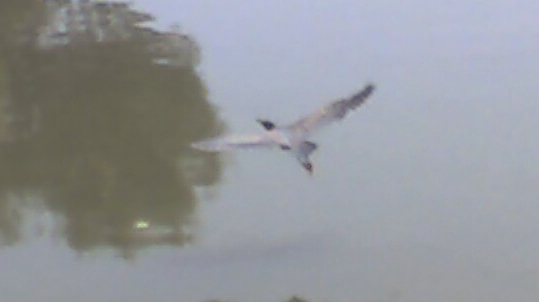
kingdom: Animalia
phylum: Chordata
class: Aves
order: Pelecaniformes
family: Ardeidae
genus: Butorides
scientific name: Butorides virescens
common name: Green heron
